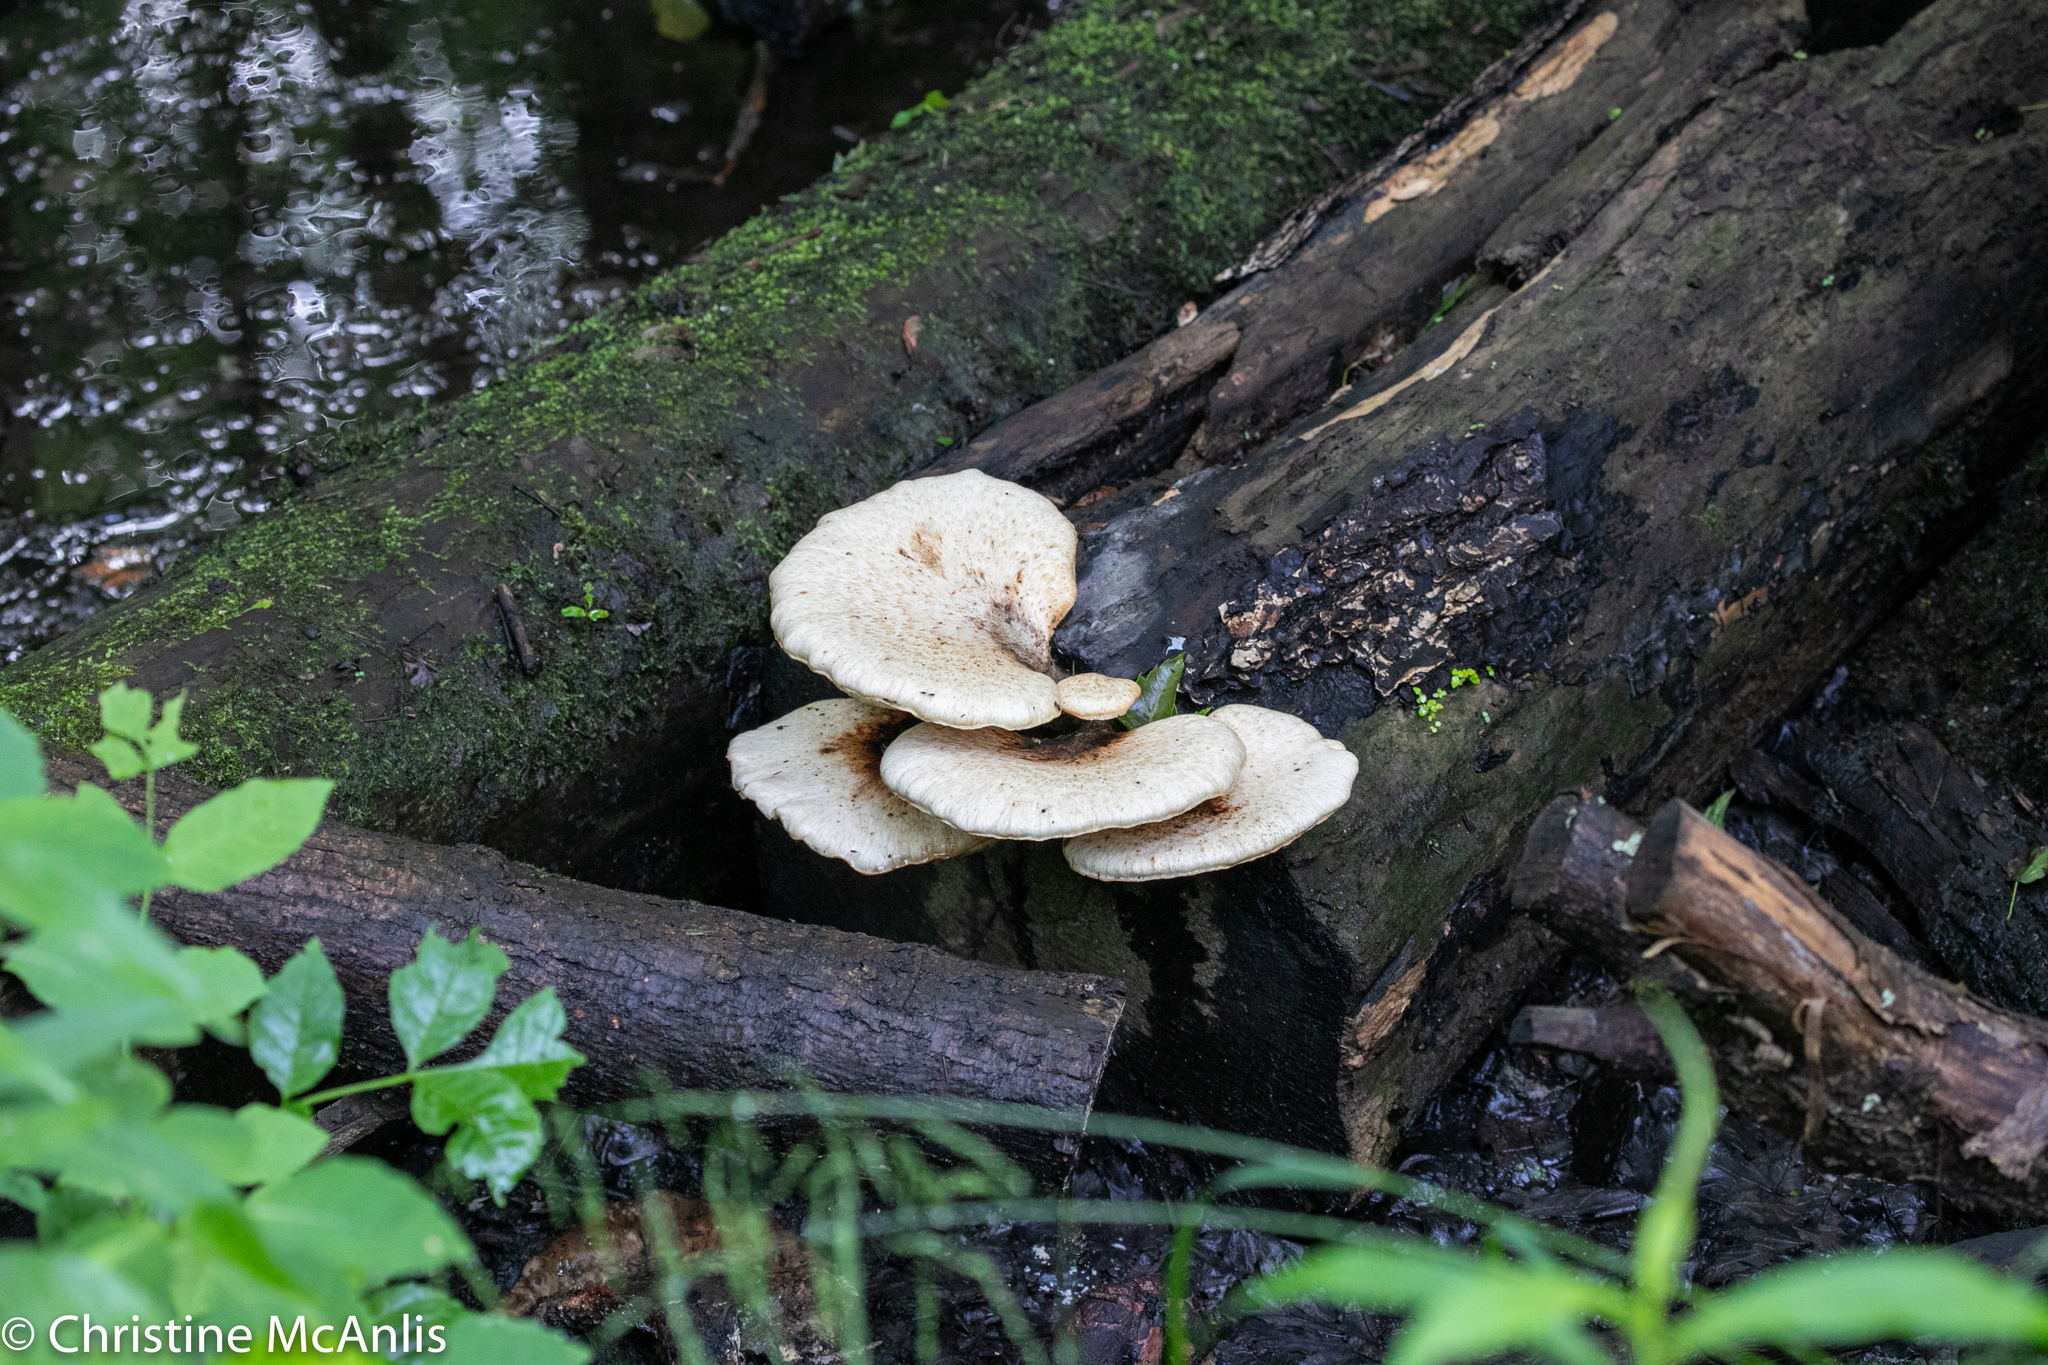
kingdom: Fungi
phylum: Basidiomycota
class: Agaricomycetes
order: Polyporales
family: Polyporaceae
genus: Cerioporus
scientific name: Cerioporus squamosus
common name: Dryad's saddle
